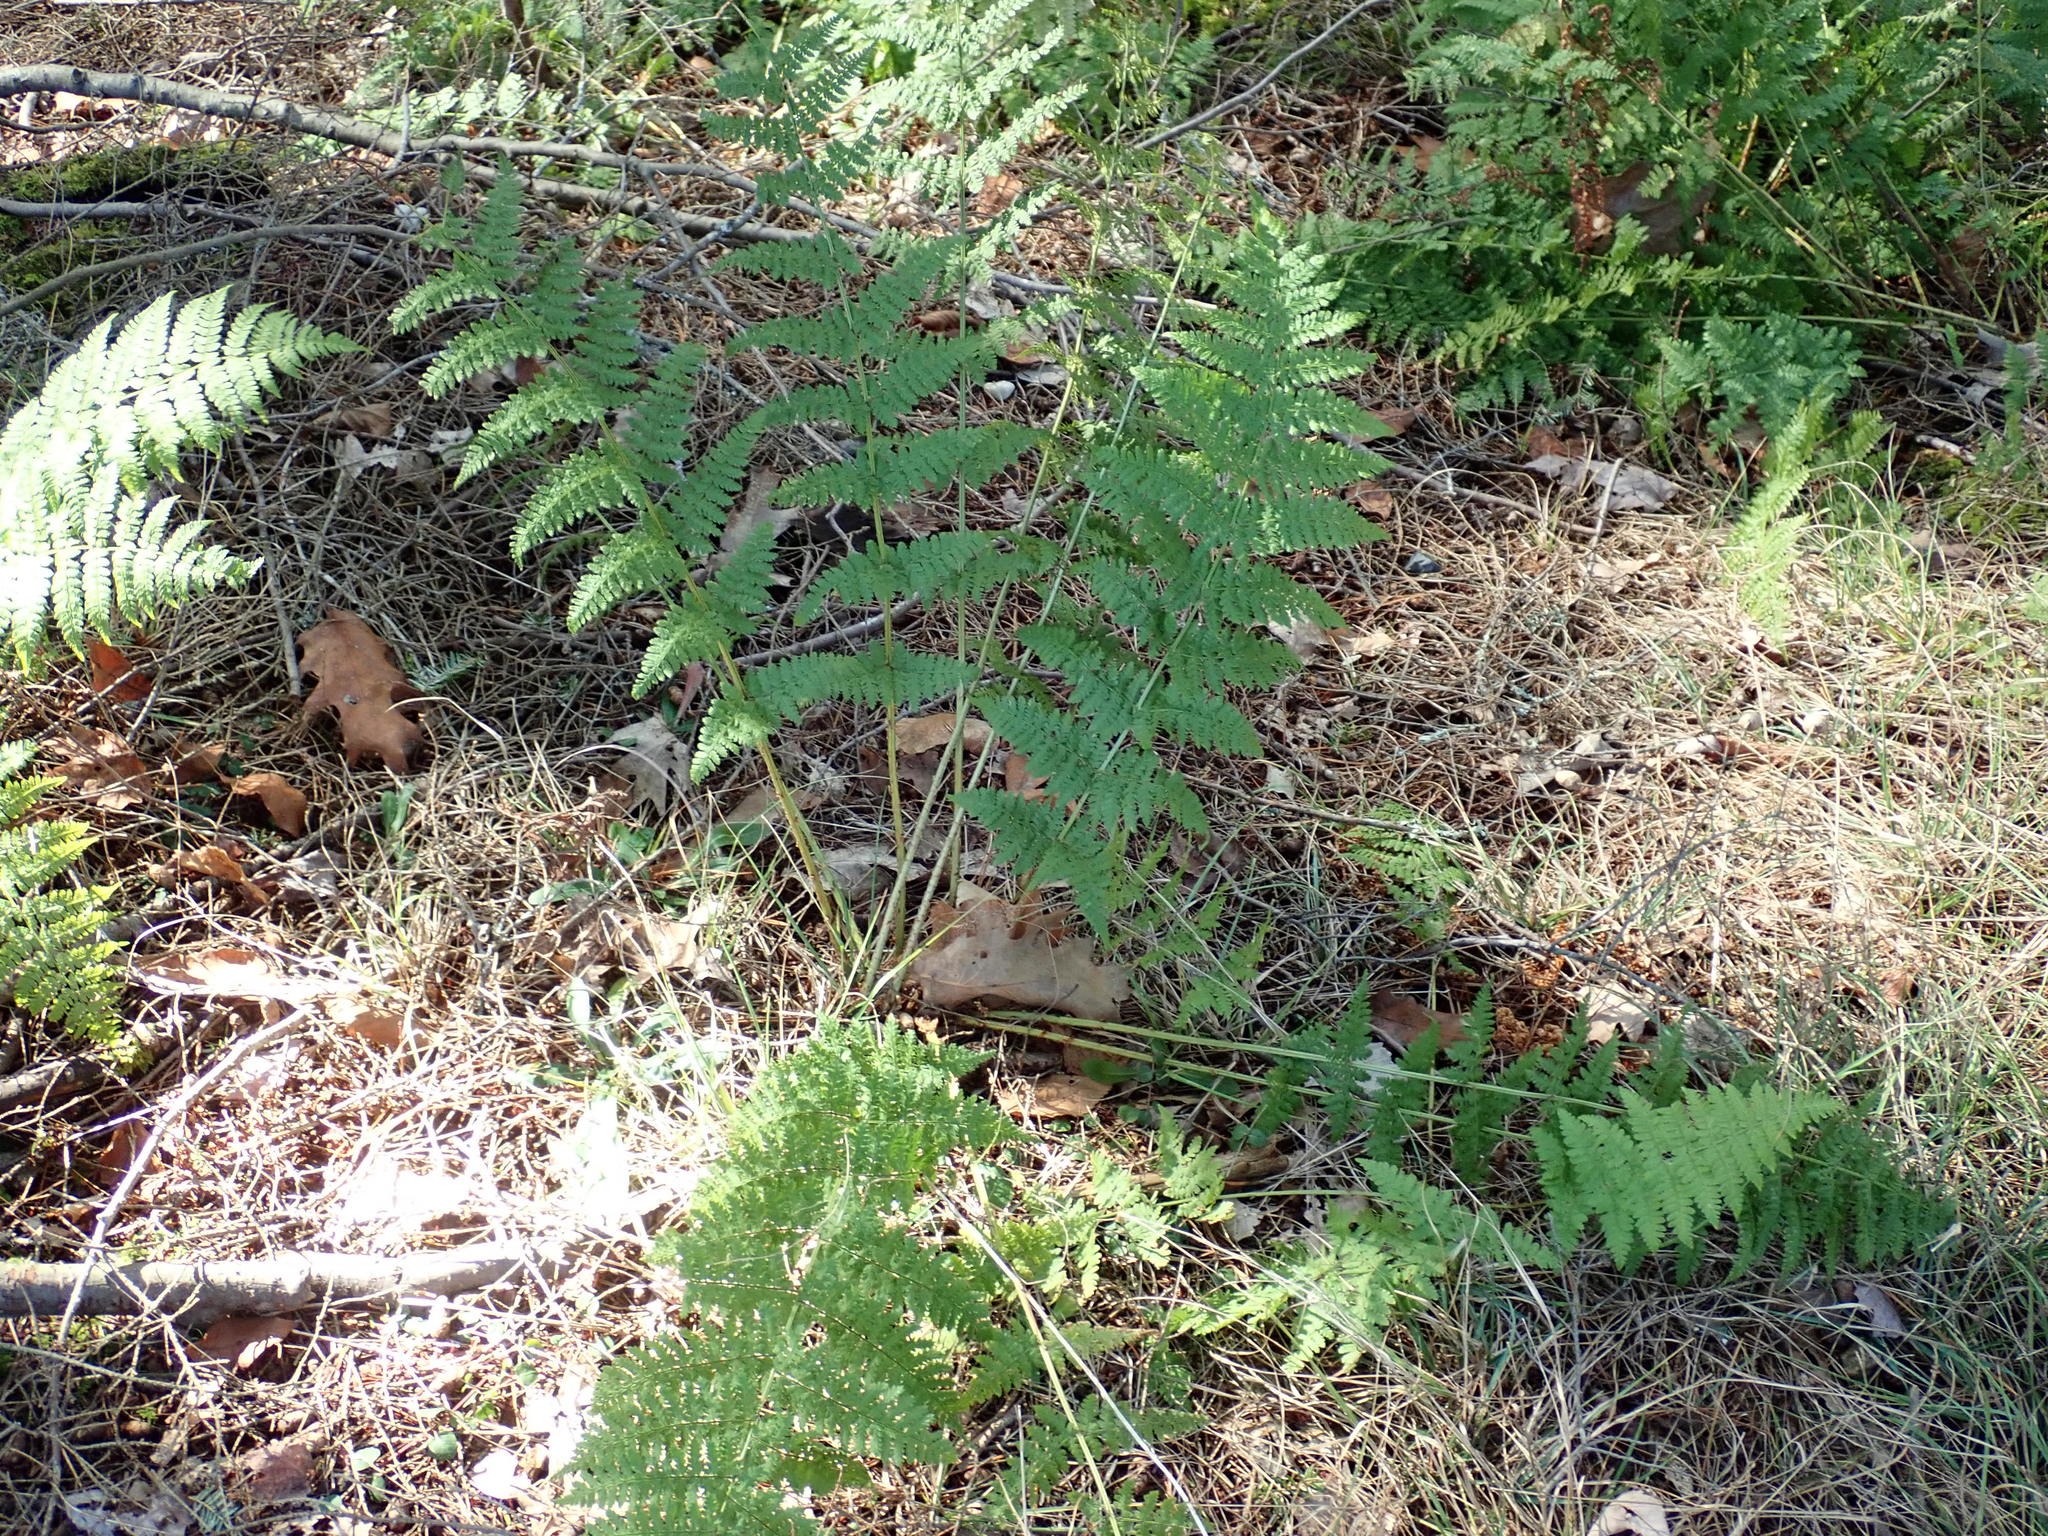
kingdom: Plantae
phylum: Tracheophyta
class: Polypodiopsida
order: Polypodiales
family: Dryopteridaceae
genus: Dryopteris
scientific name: Dryopteris intermedia
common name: Evergreen wood fern
